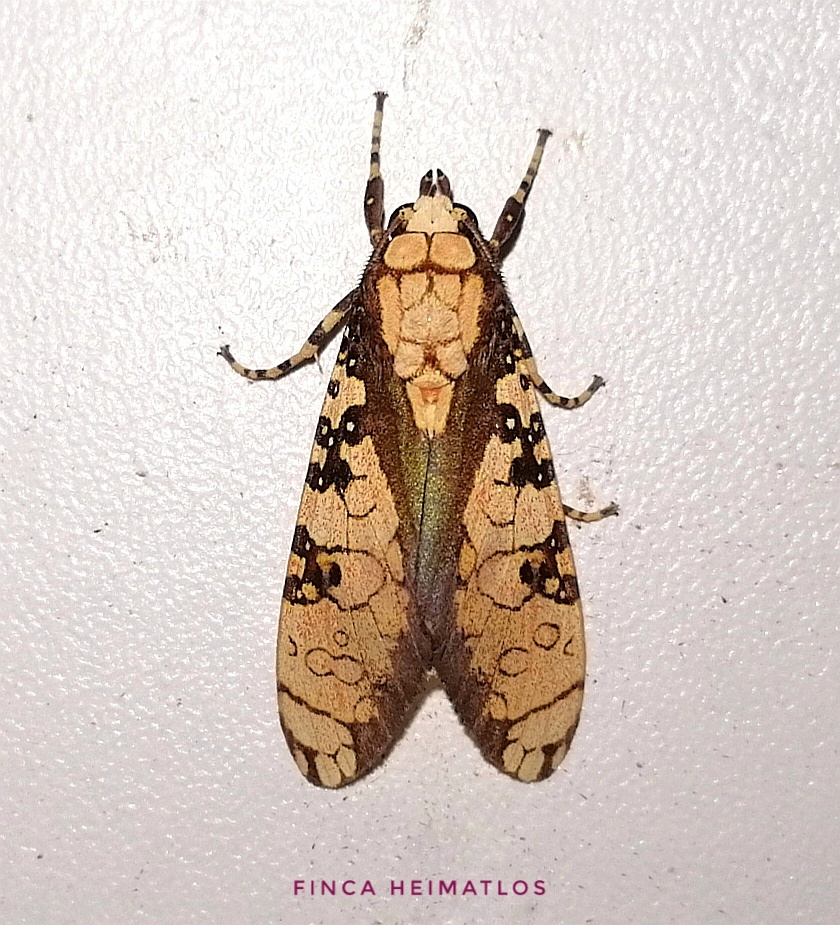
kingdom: Animalia
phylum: Arthropoda
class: Insecta
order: Lepidoptera
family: Erebidae
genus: Cresera
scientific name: Cresera ilioides
